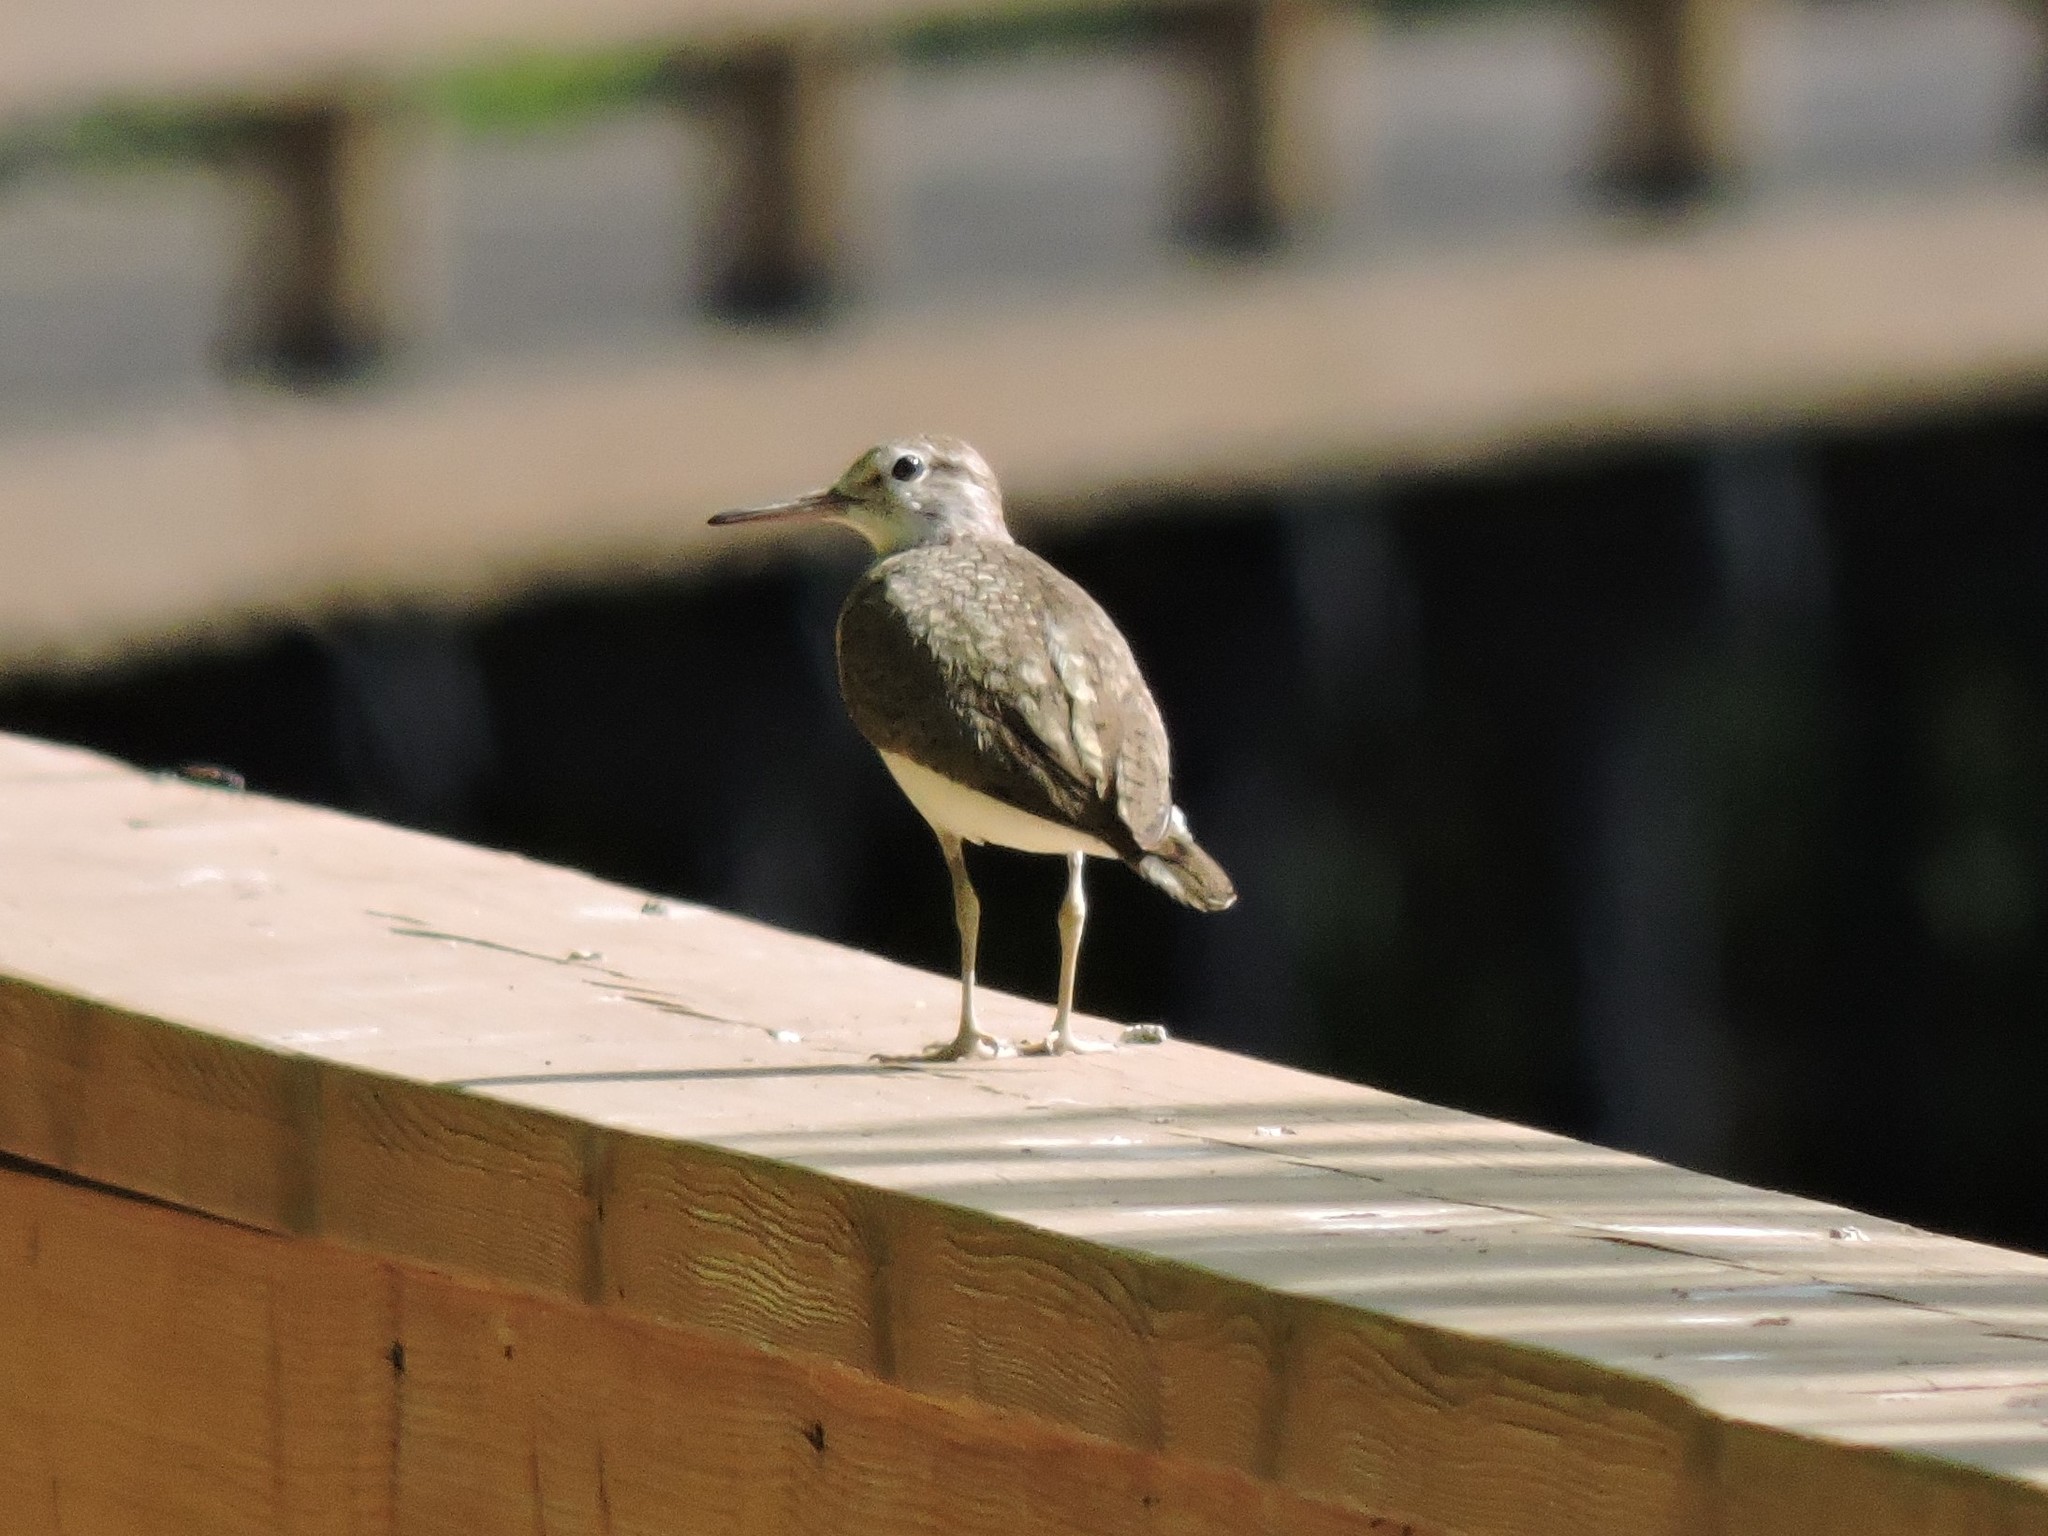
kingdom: Animalia
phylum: Chordata
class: Aves
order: Charadriiformes
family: Scolopacidae
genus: Actitis
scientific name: Actitis hypoleucos
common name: Common sandpiper
